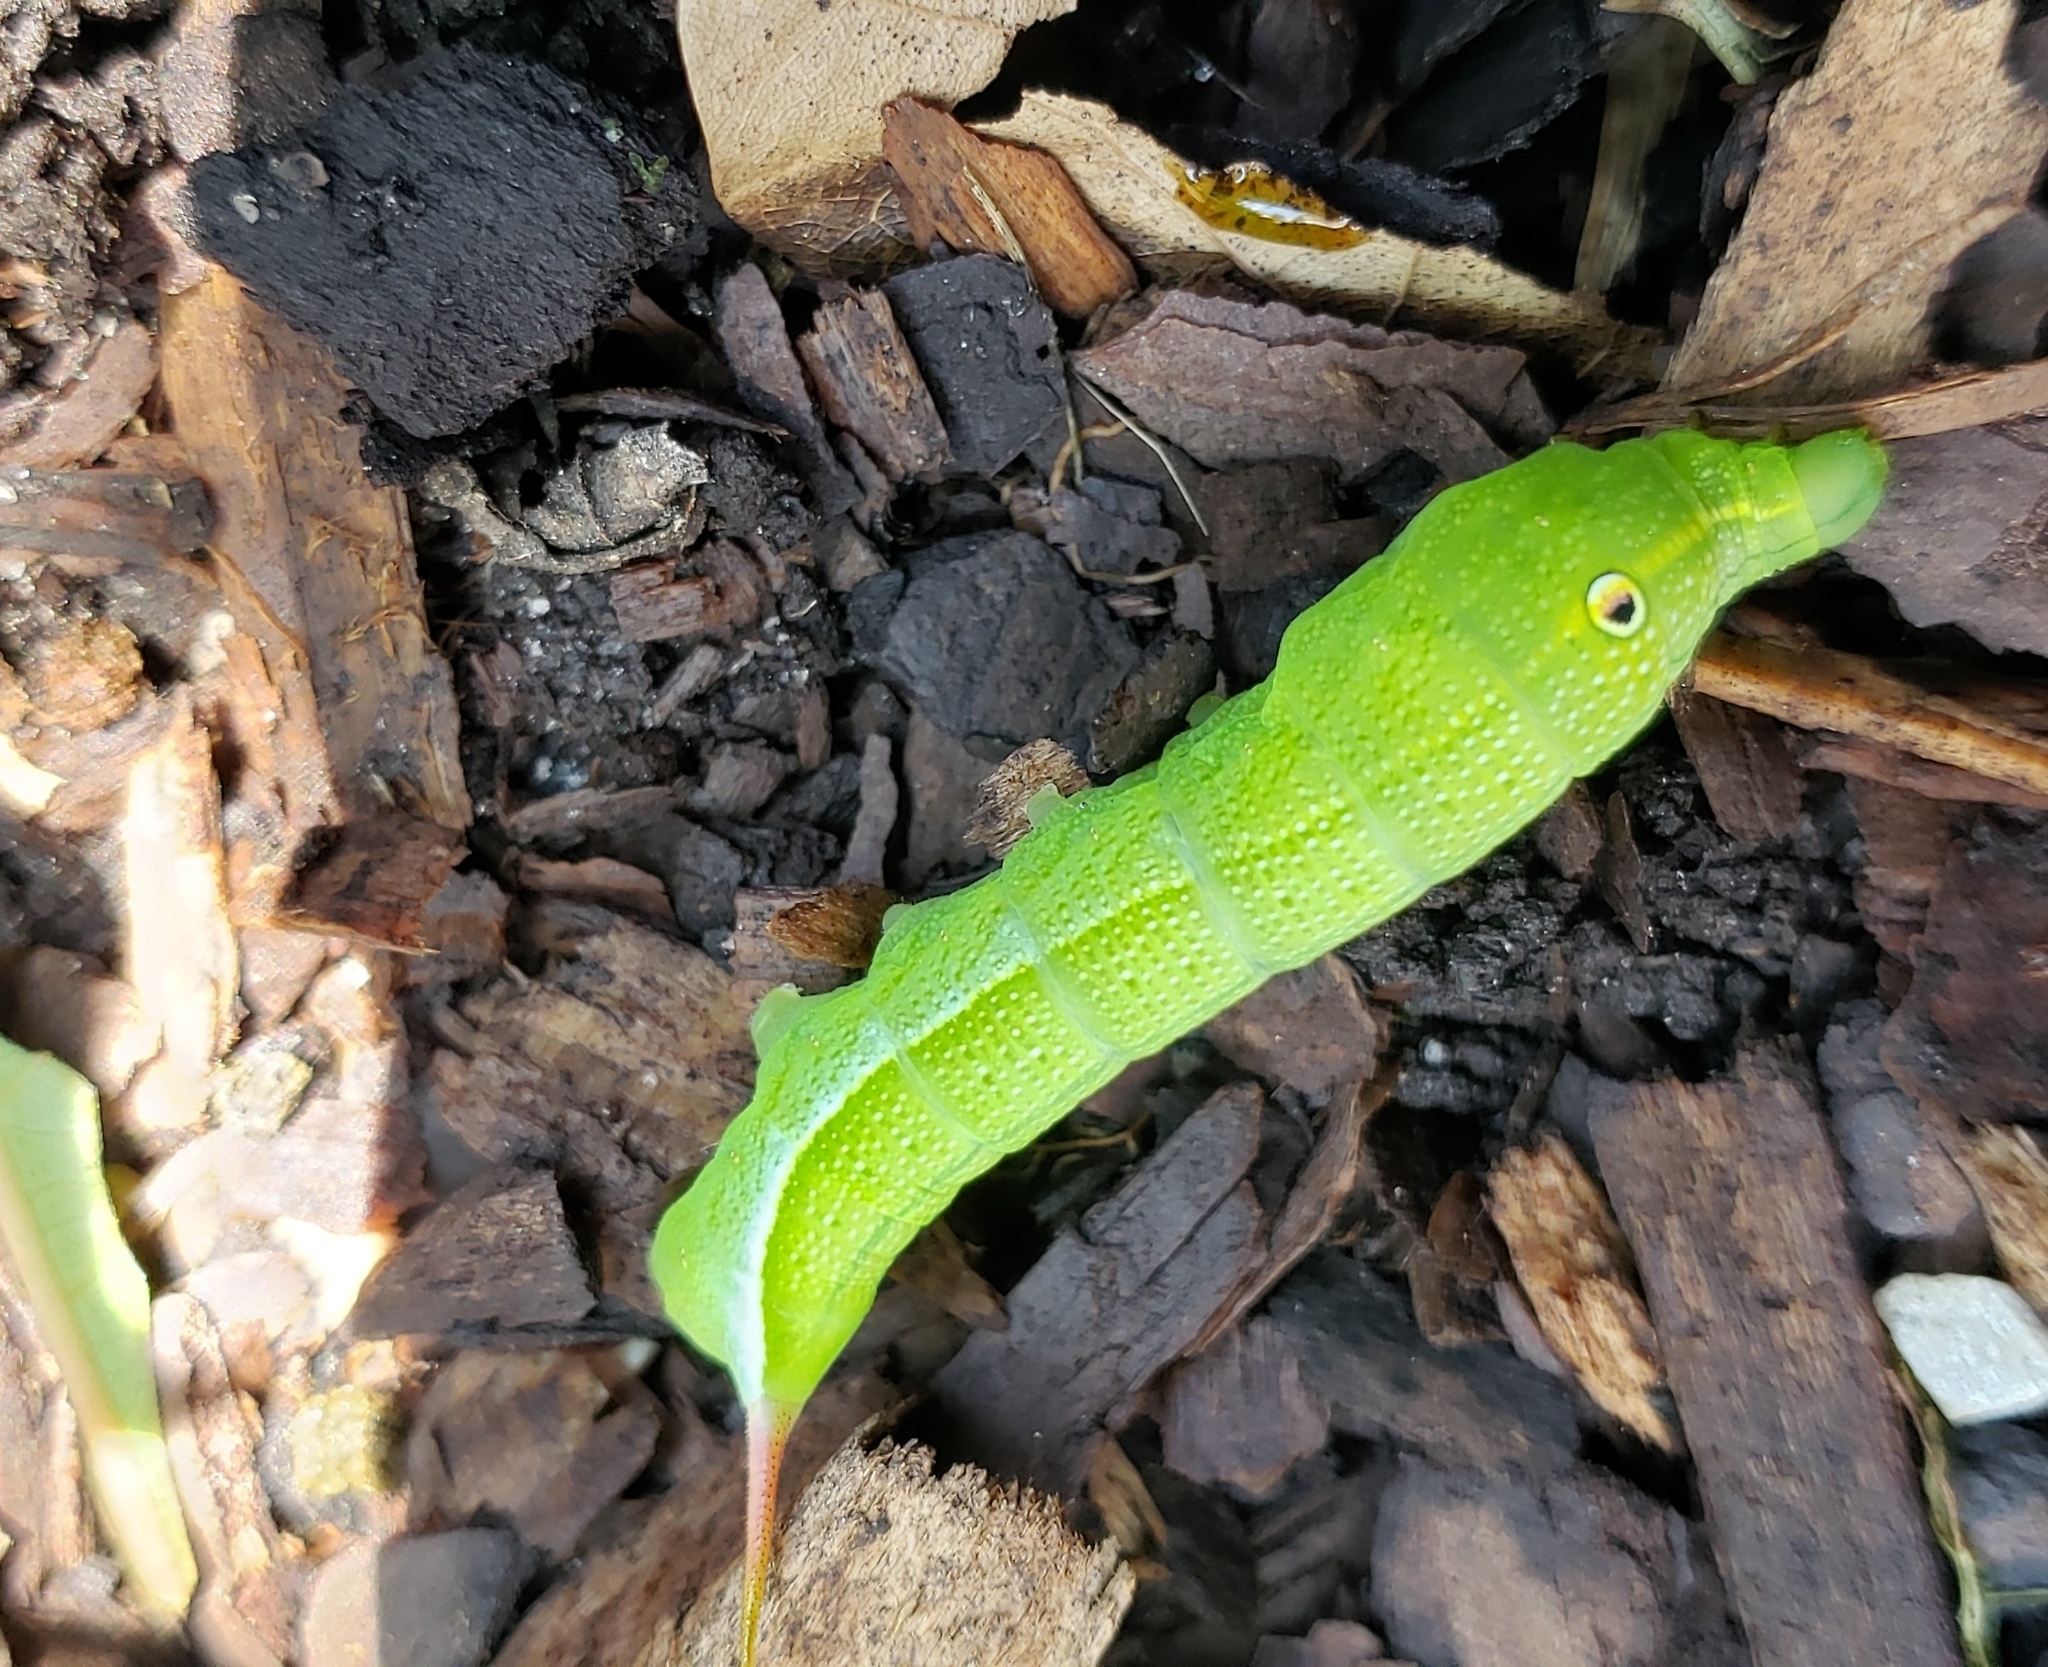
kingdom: Animalia
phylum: Arthropoda
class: Insecta
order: Lepidoptera
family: Sphingidae
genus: Xylophanes
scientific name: Xylophanes pluto
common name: Pluto sphinx
